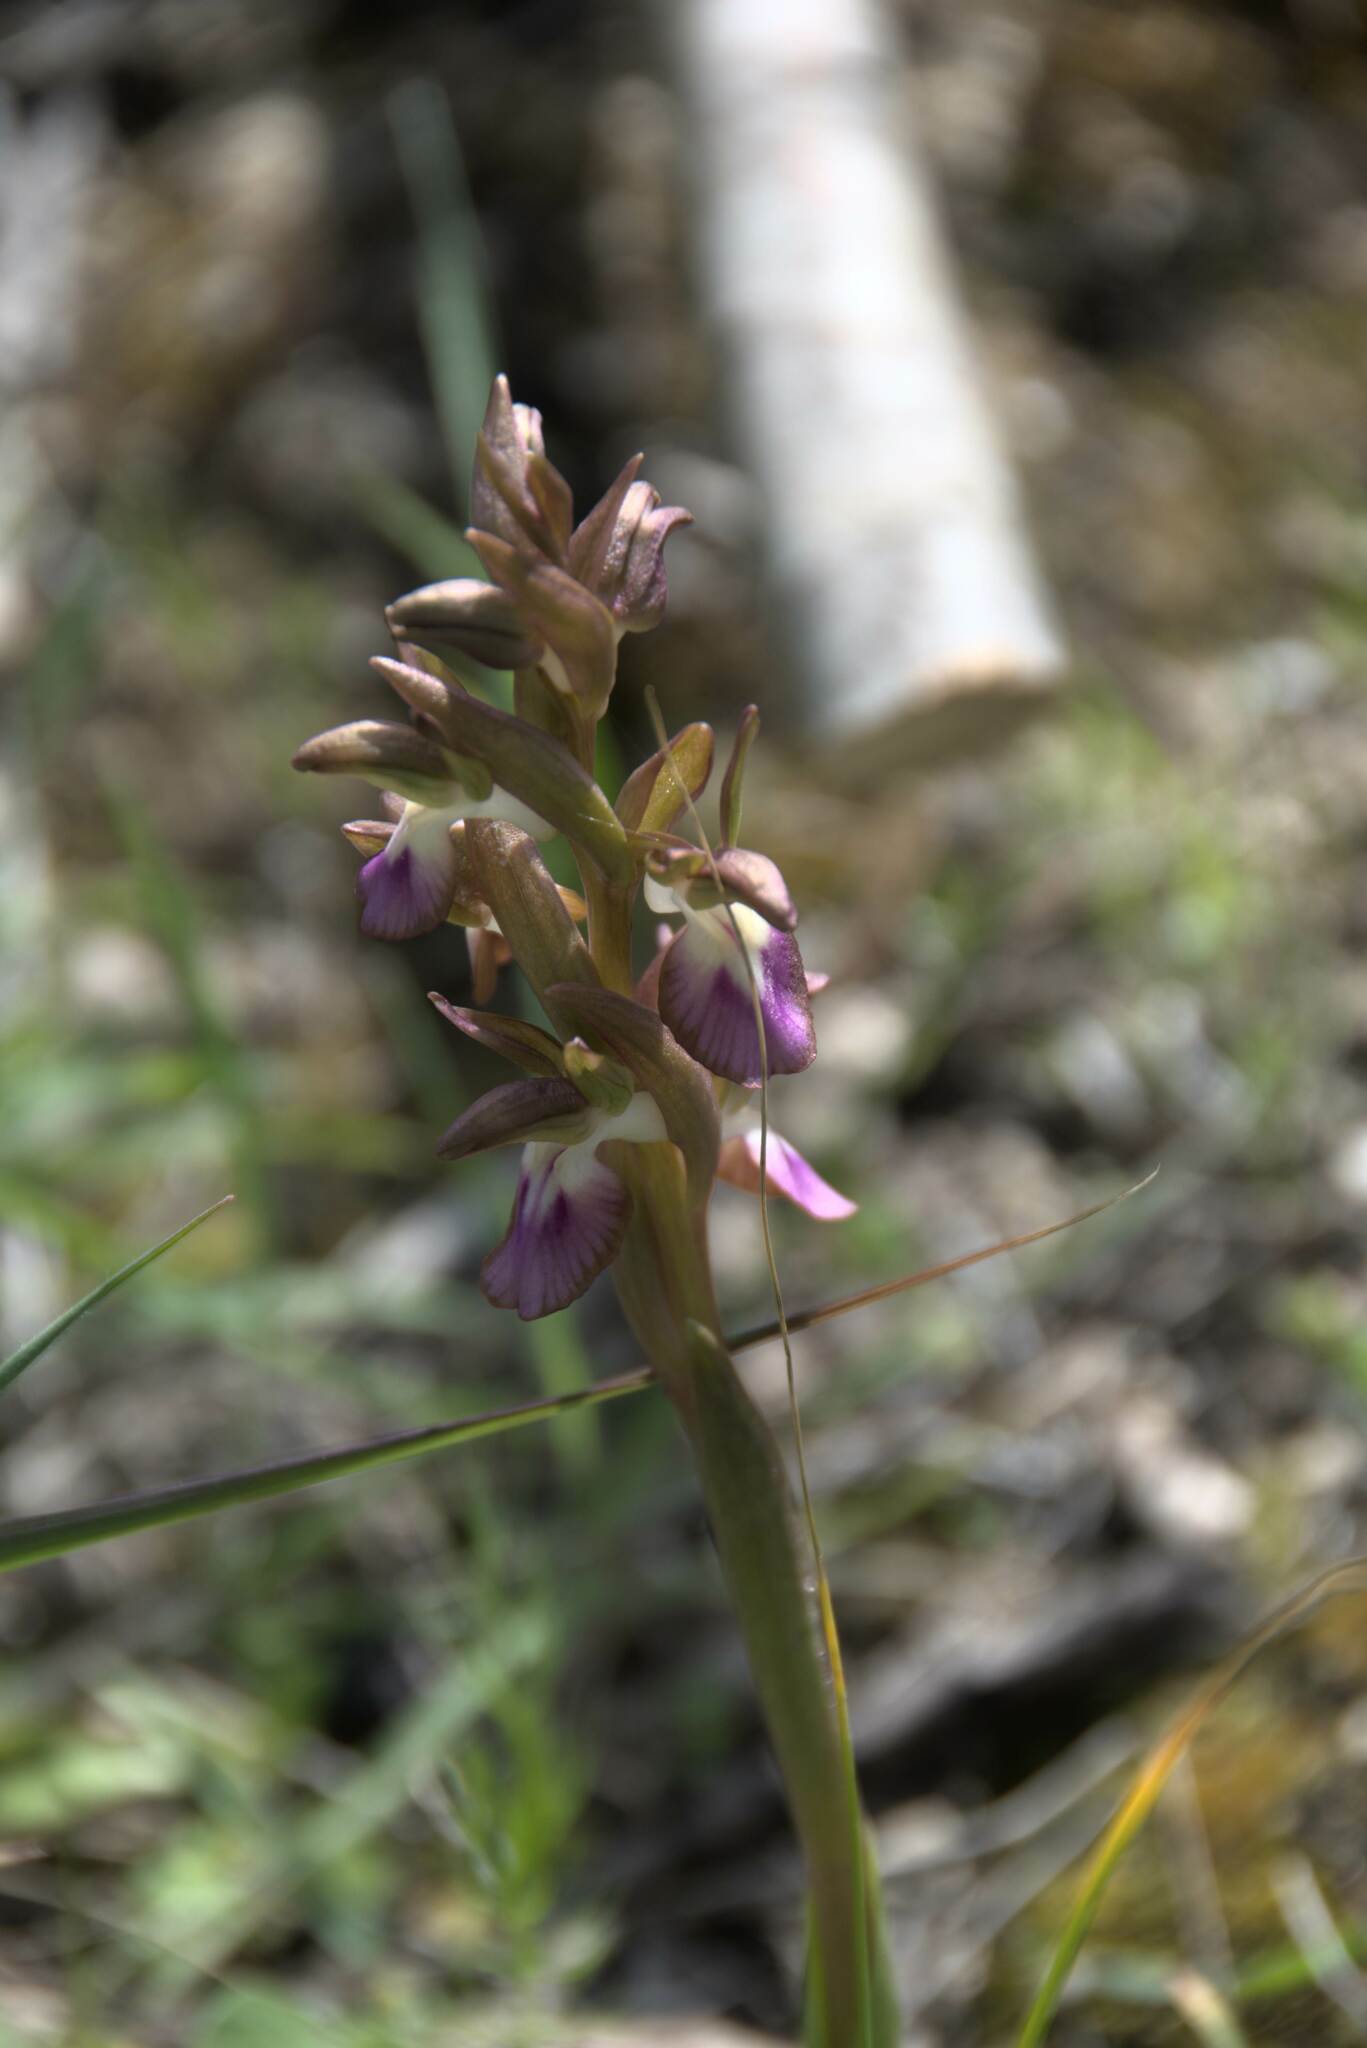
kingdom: Plantae
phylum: Tracheophyta
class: Liliopsida
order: Asparagales
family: Orchidaceae
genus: Anacamptis
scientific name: Anacamptis collina
